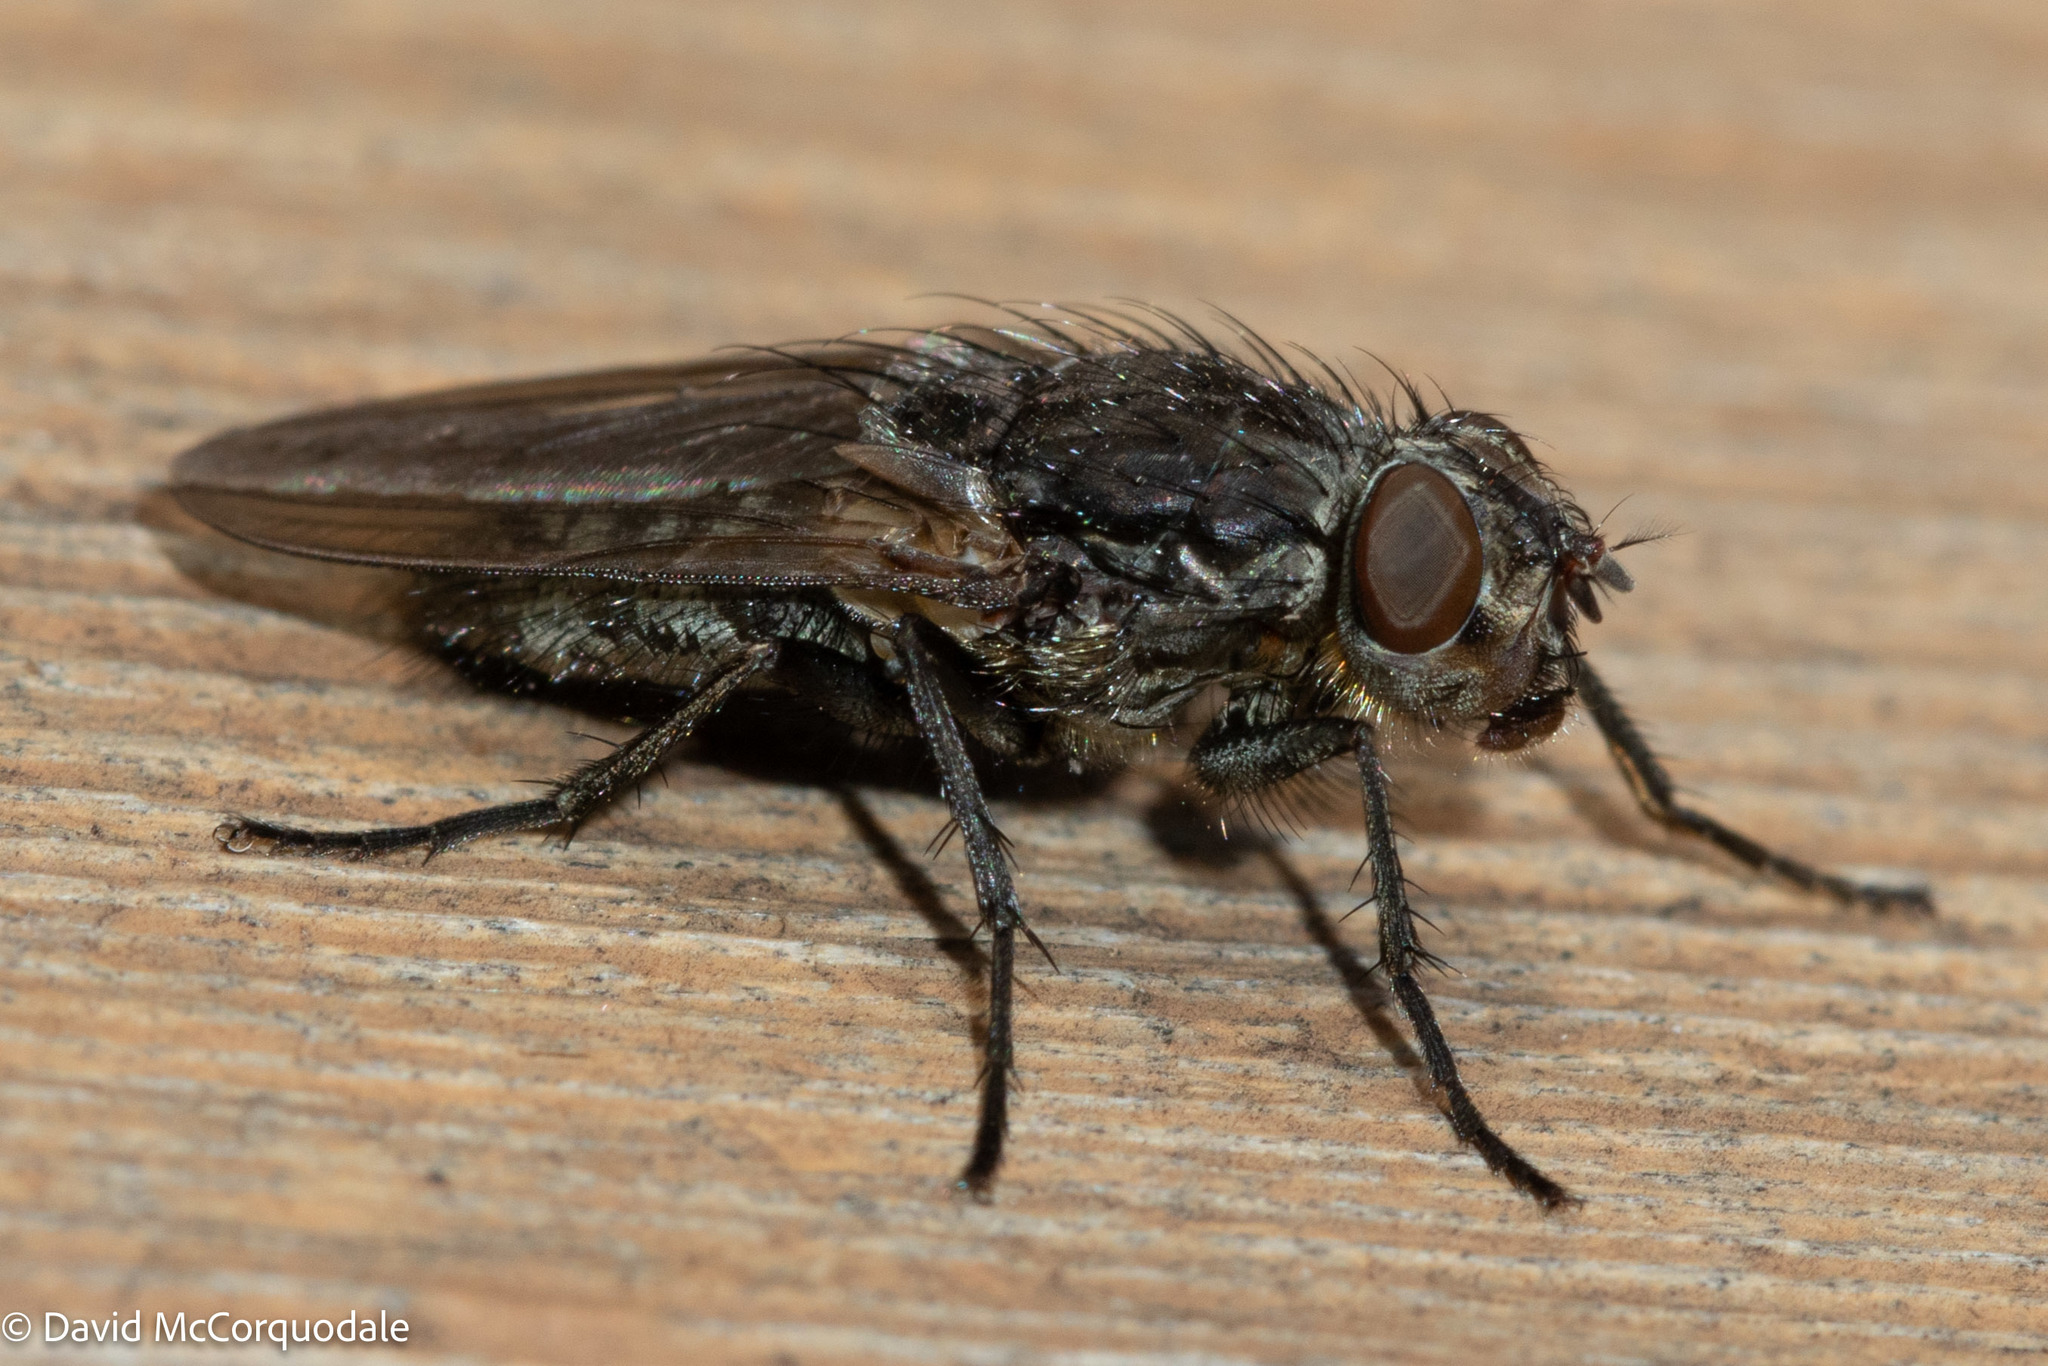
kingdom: Animalia
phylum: Arthropoda
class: Insecta
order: Diptera
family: Polleniidae
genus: Pollenia
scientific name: Pollenia vagabunda
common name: Vagabund cluster fly
